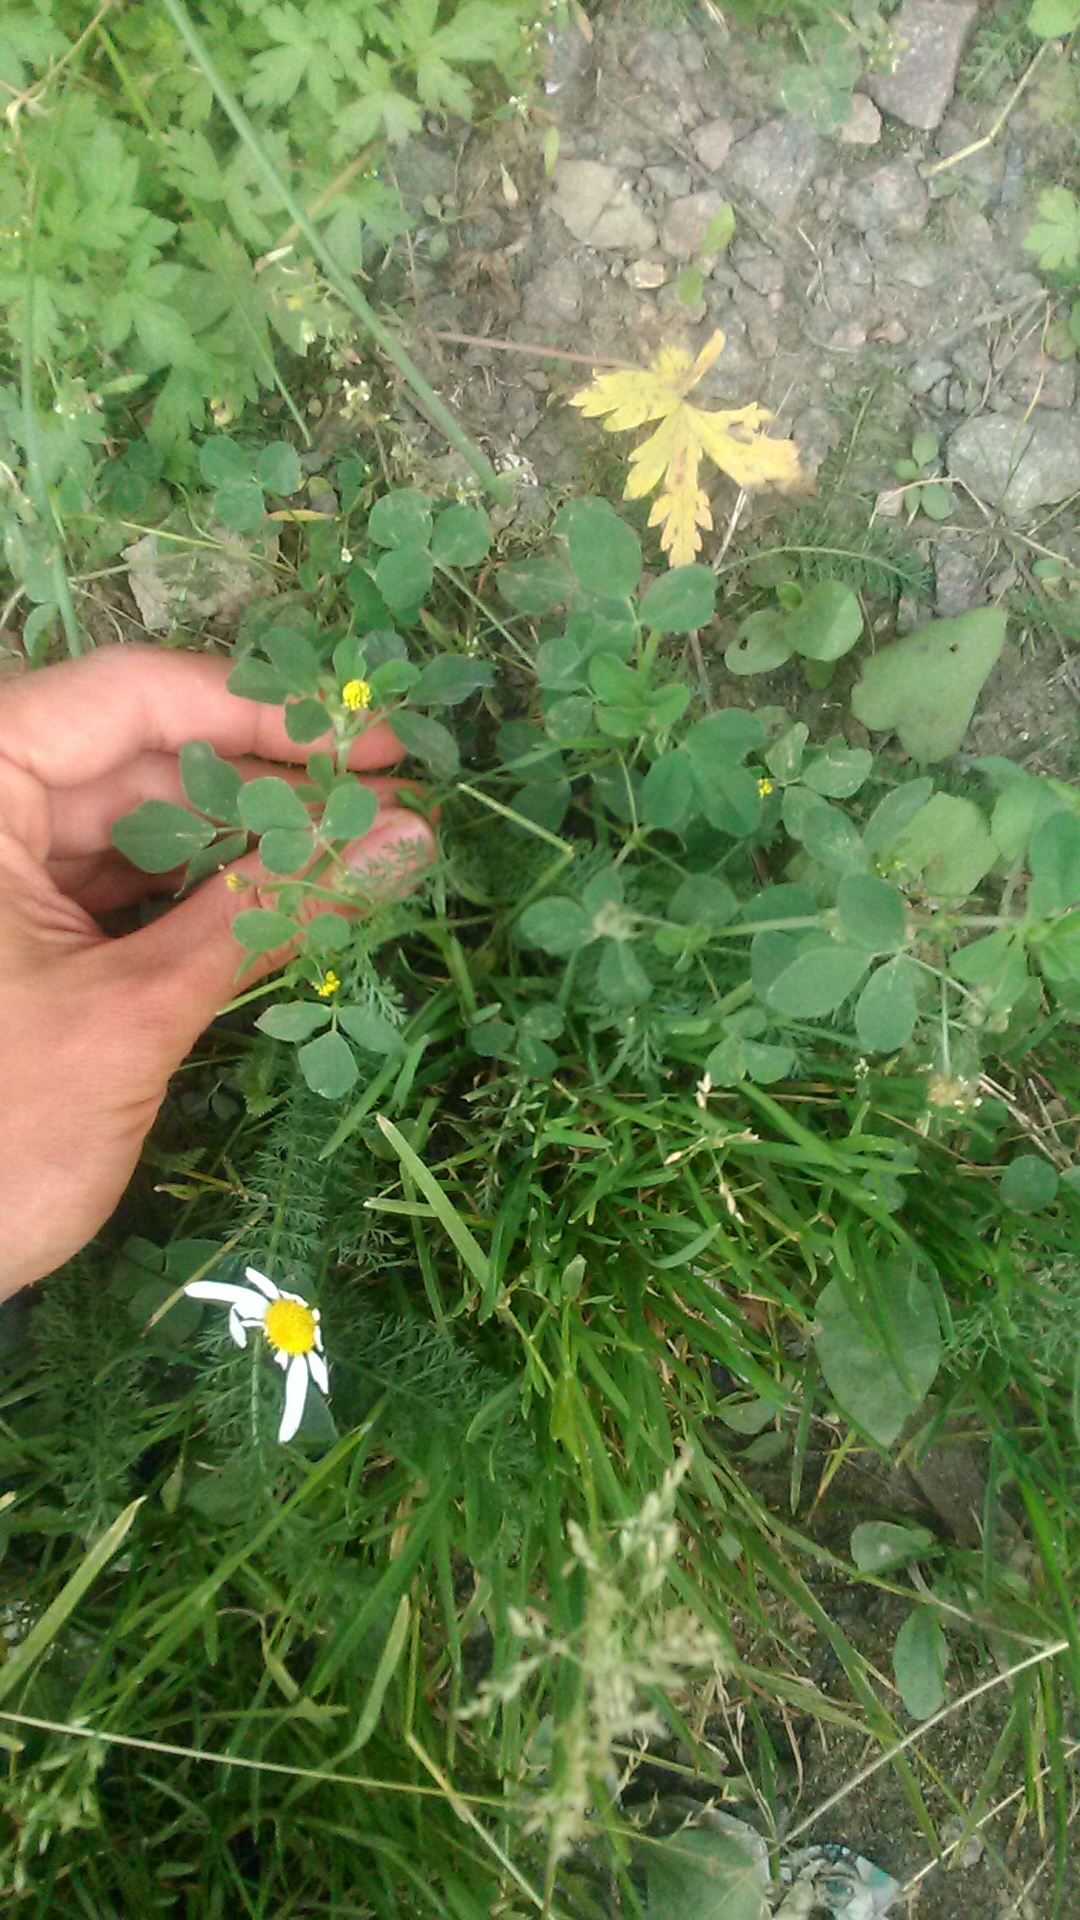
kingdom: Plantae
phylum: Tracheophyta
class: Magnoliopsida
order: Fabales
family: Fabaceae
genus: Medicago
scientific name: Medicago lupulina
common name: Black medick
